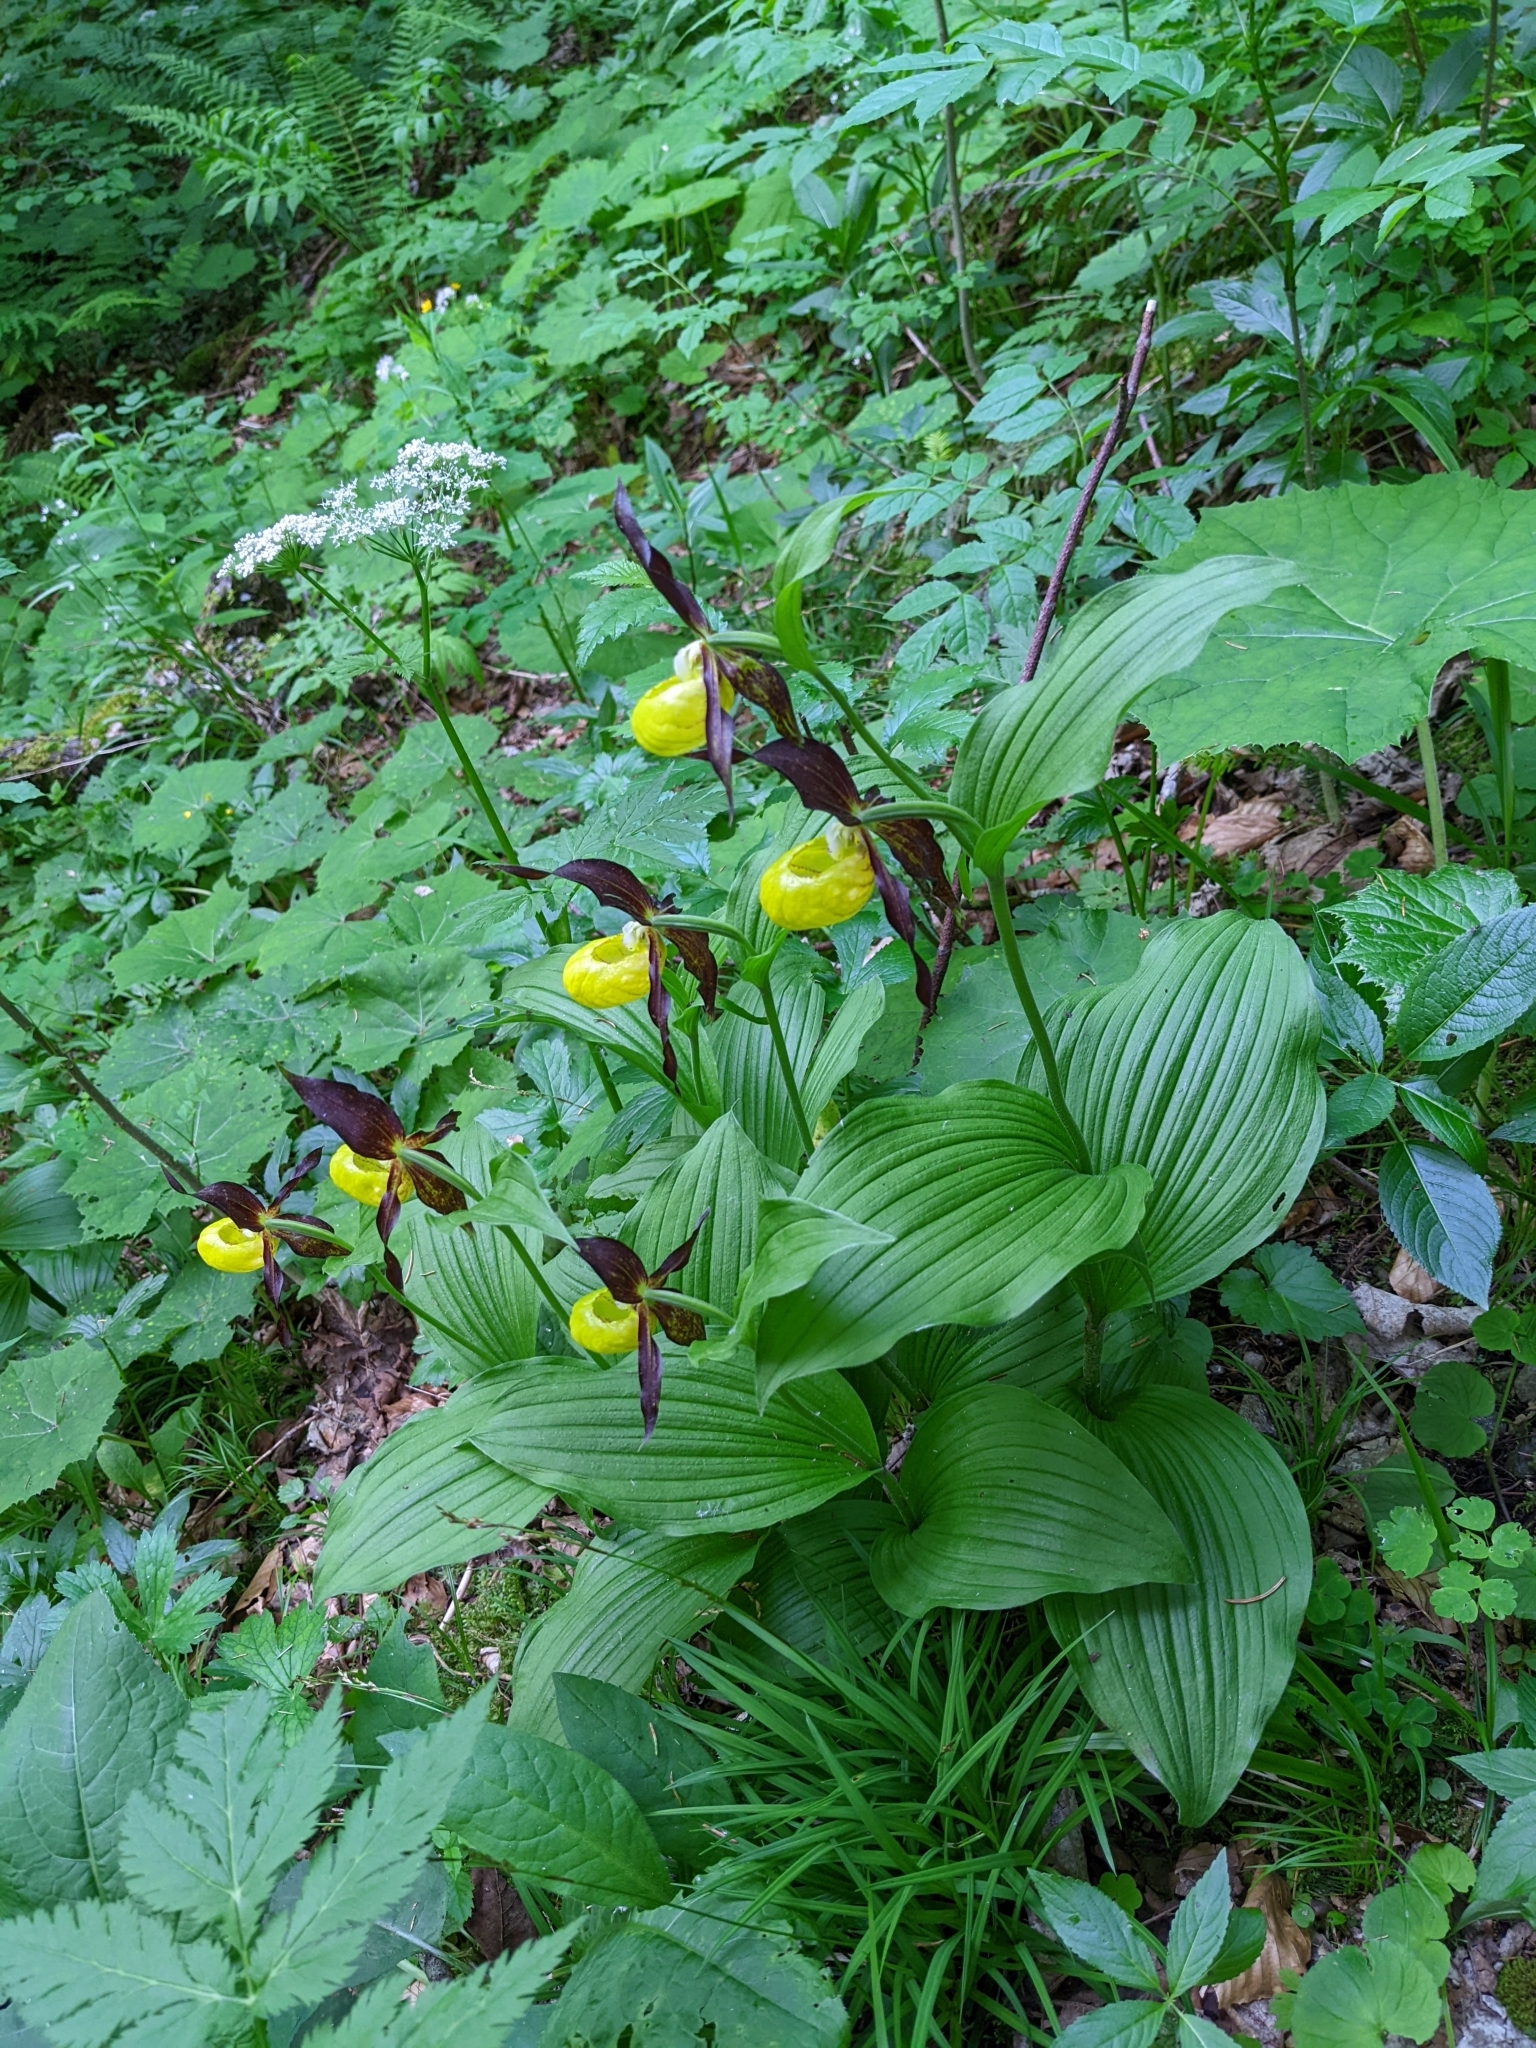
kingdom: Plantae
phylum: Tracheophyta
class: Liliopsida
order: Asparagales
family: Orchidaceae
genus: Cypripedium
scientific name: Cypripedium calceolus
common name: Lady's-slipper
